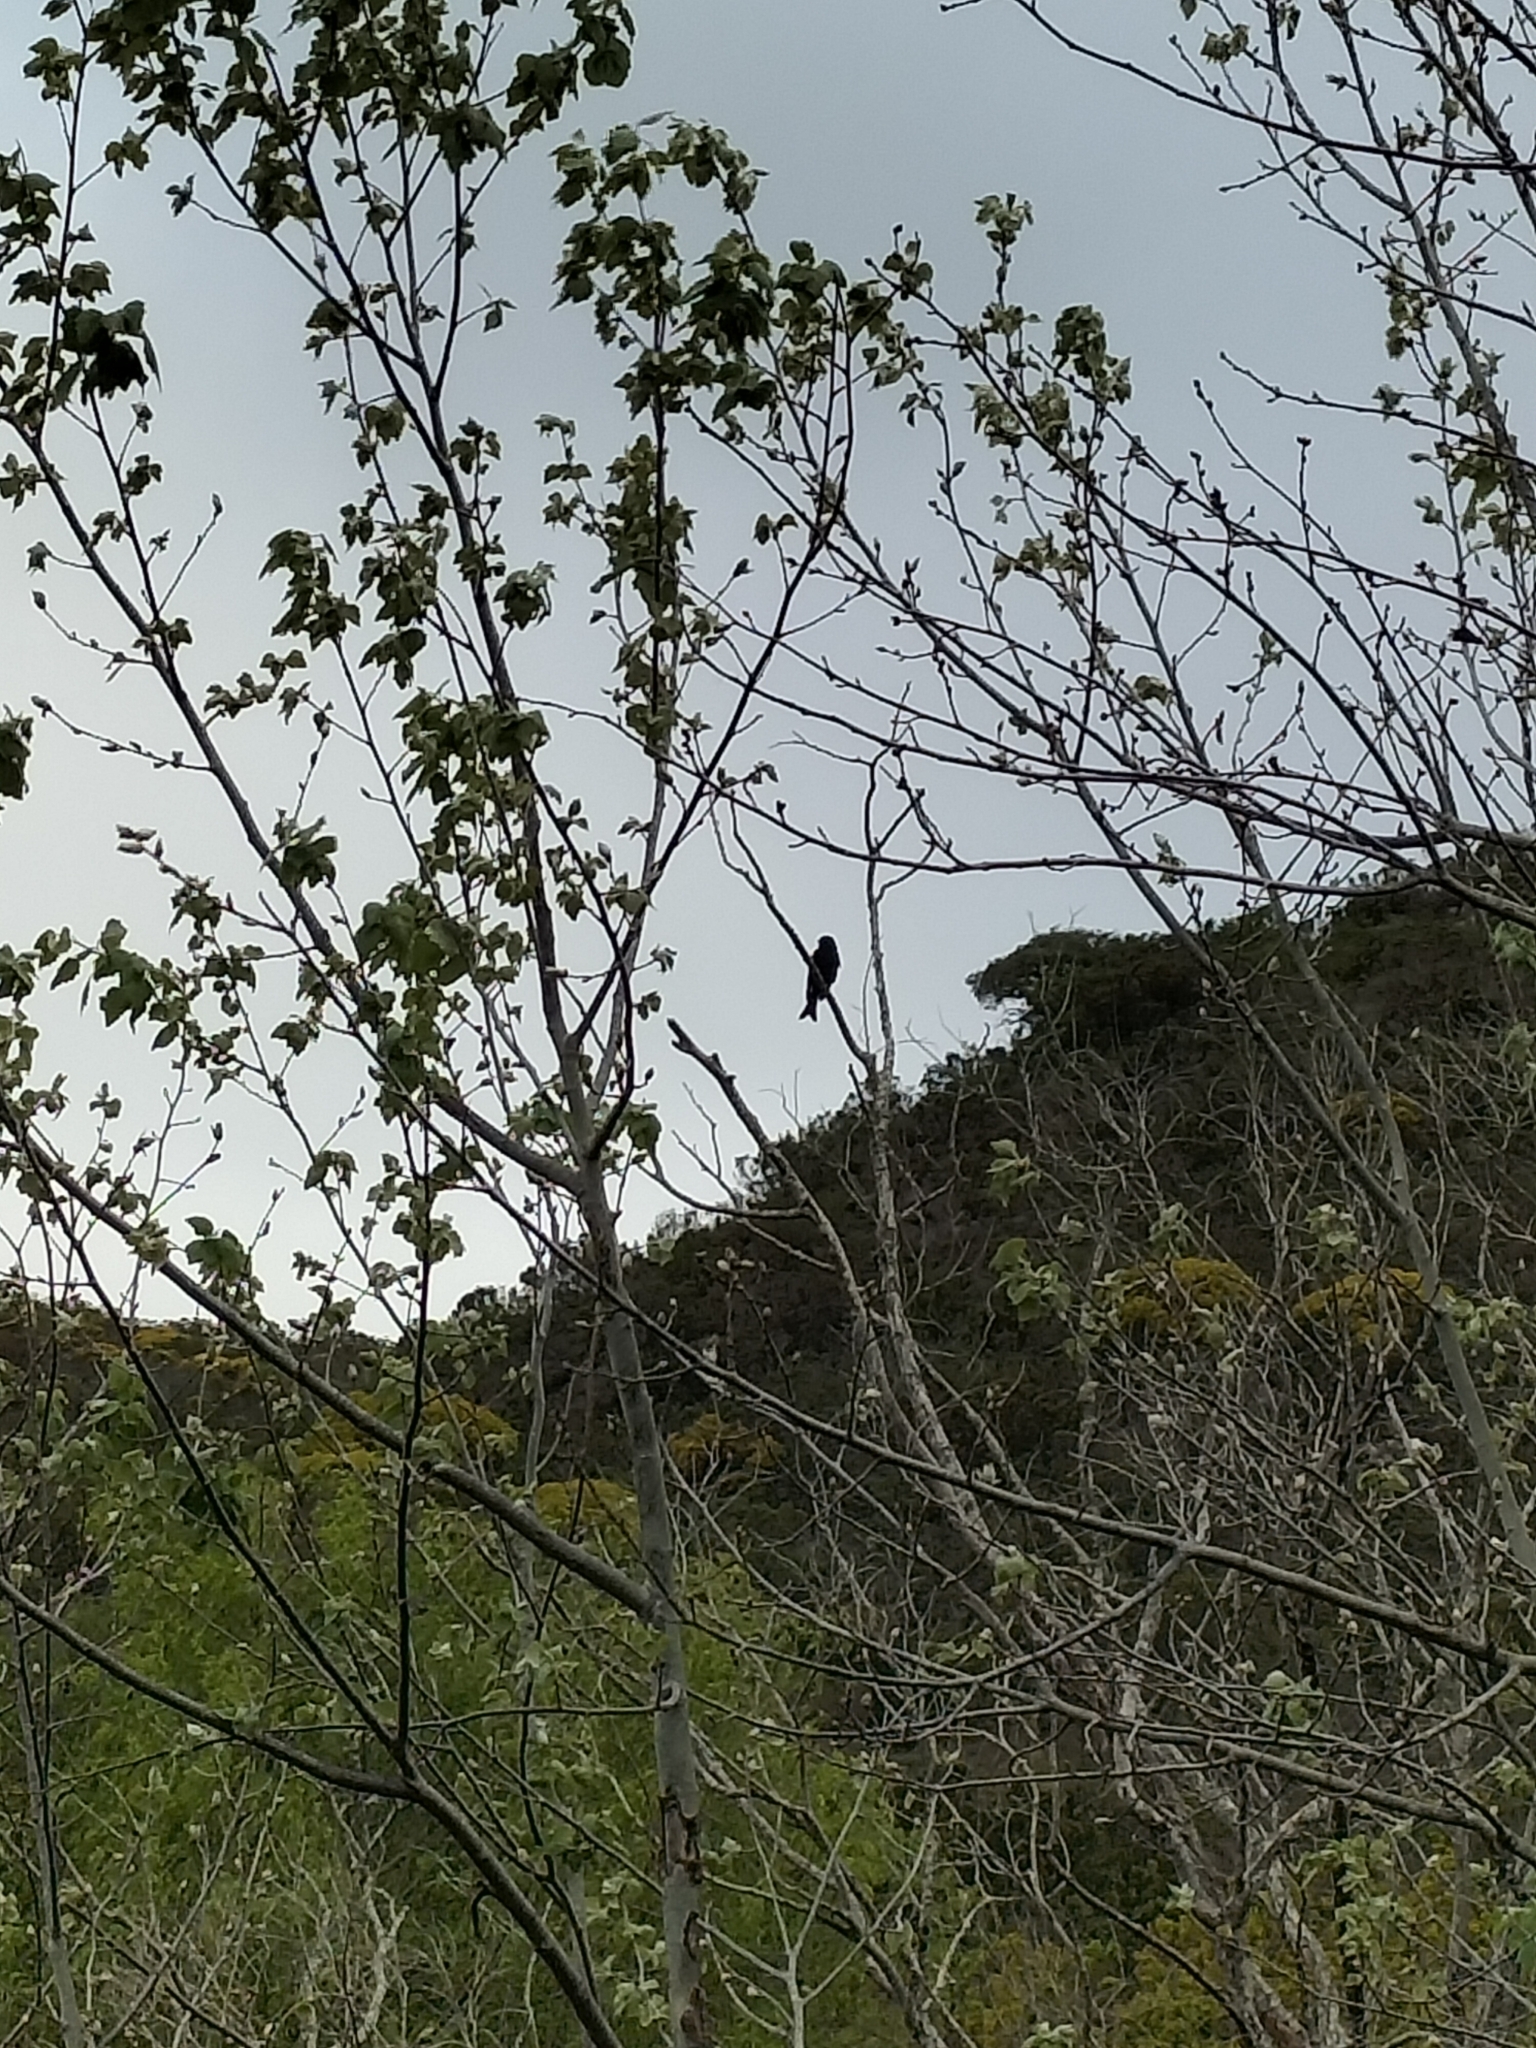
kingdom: Animalia
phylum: Chordata
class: Aves
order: Passeriformes
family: Dicruridae
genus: Dicrurus
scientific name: Dicrurus adsimilis
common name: Fork-tailed drongo
